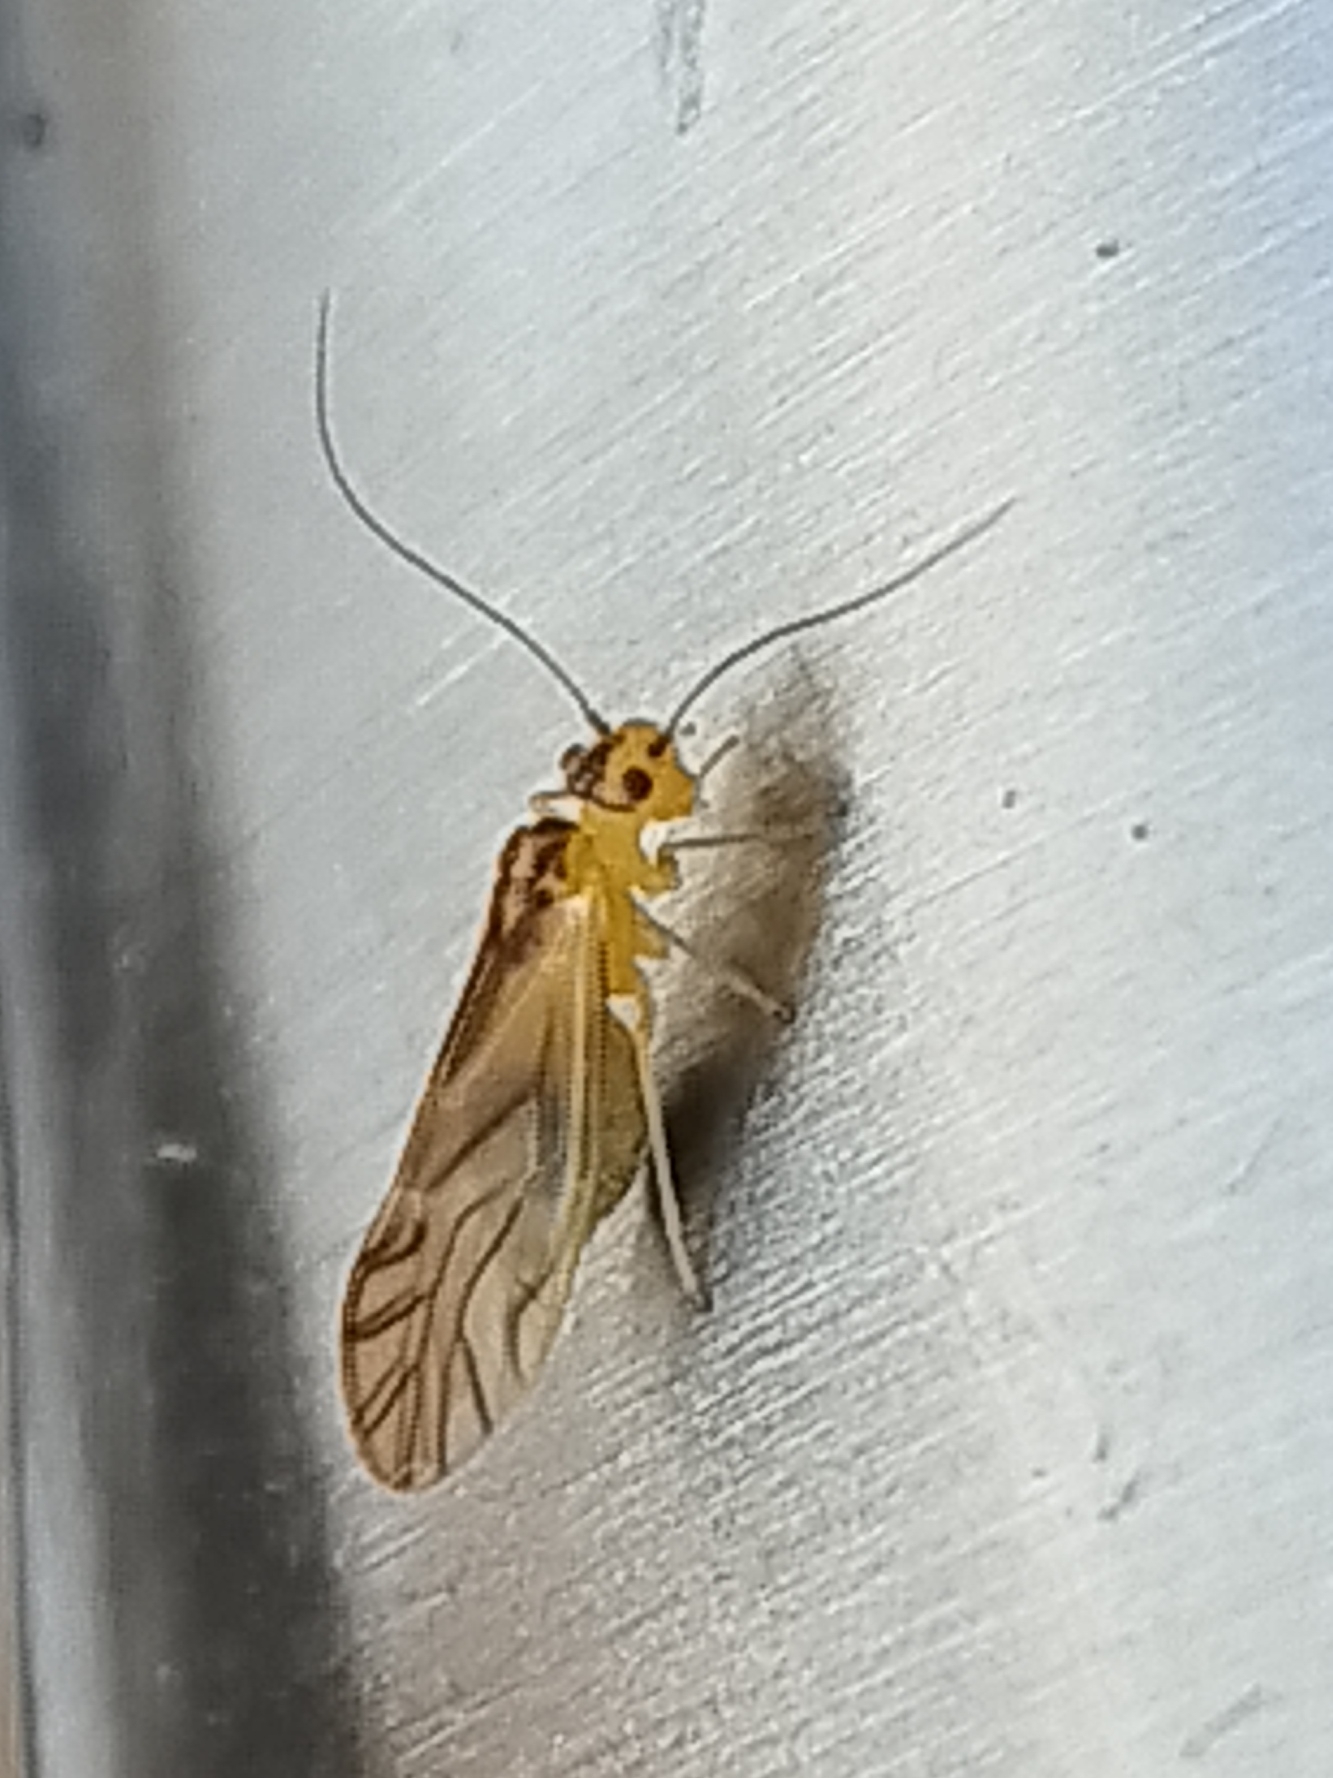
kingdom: Animalia
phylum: Arthropoda
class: Insecta
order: Psocodea
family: Caeciliusidae
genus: Valenzuela
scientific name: Valenzuela flavidus
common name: Yellow barklouse
